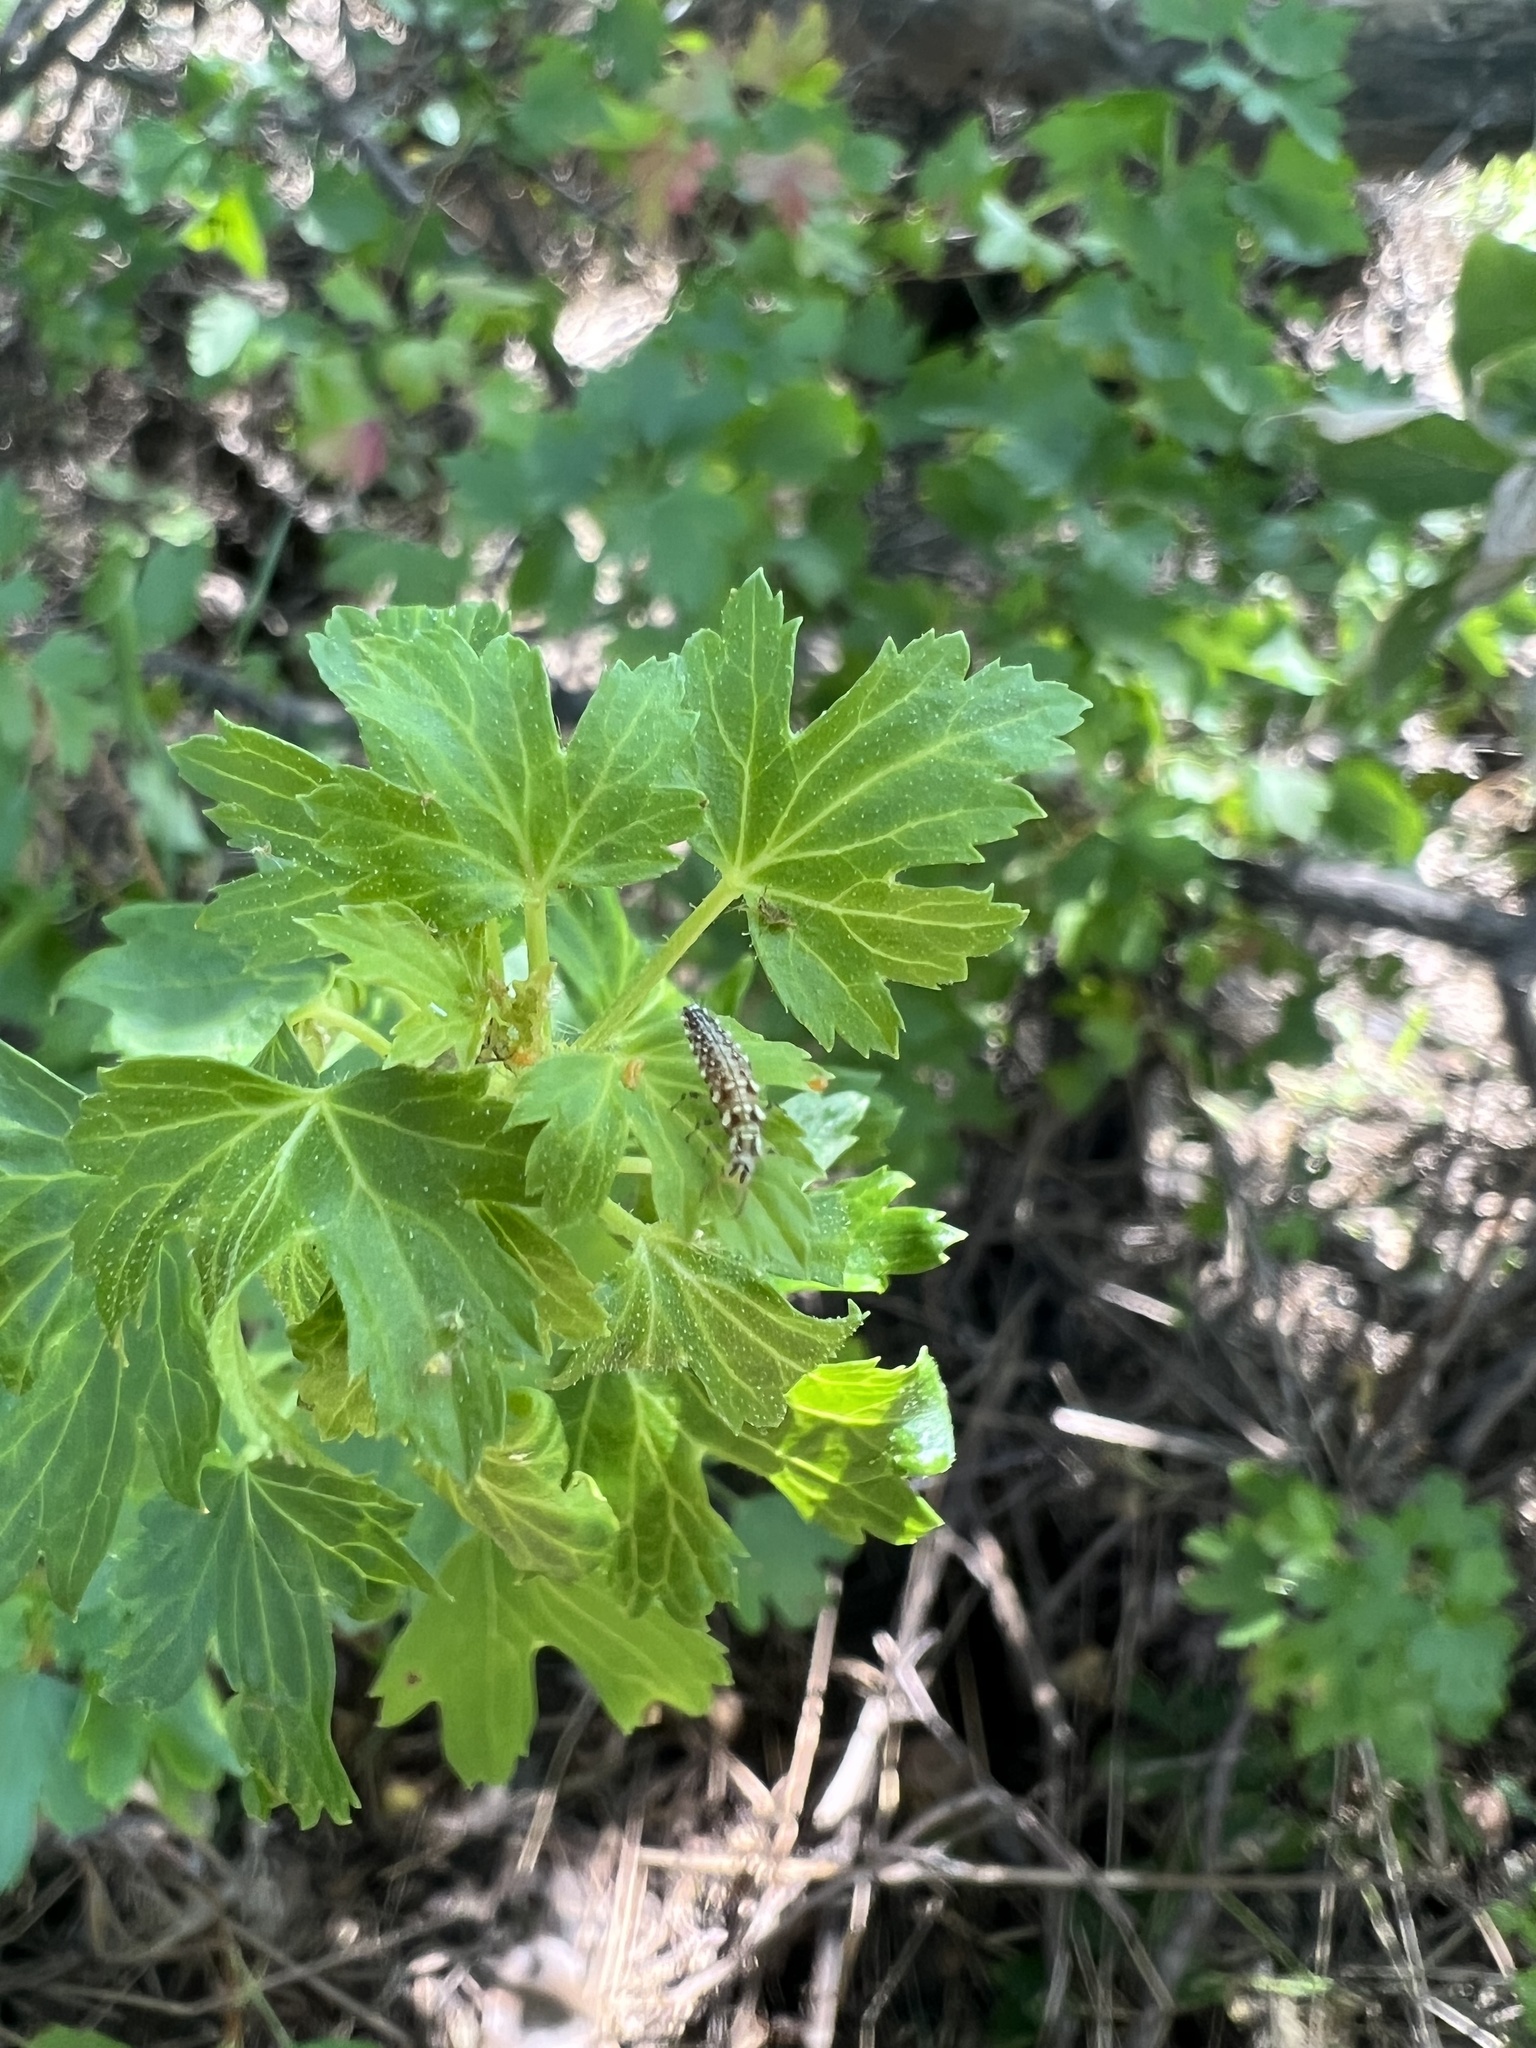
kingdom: Plantae
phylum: Tracheophyta
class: Magnoliopsida
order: Saxifragales
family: Grossulariaceae
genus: Ribes
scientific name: Ribes aureum
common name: Golden currant
